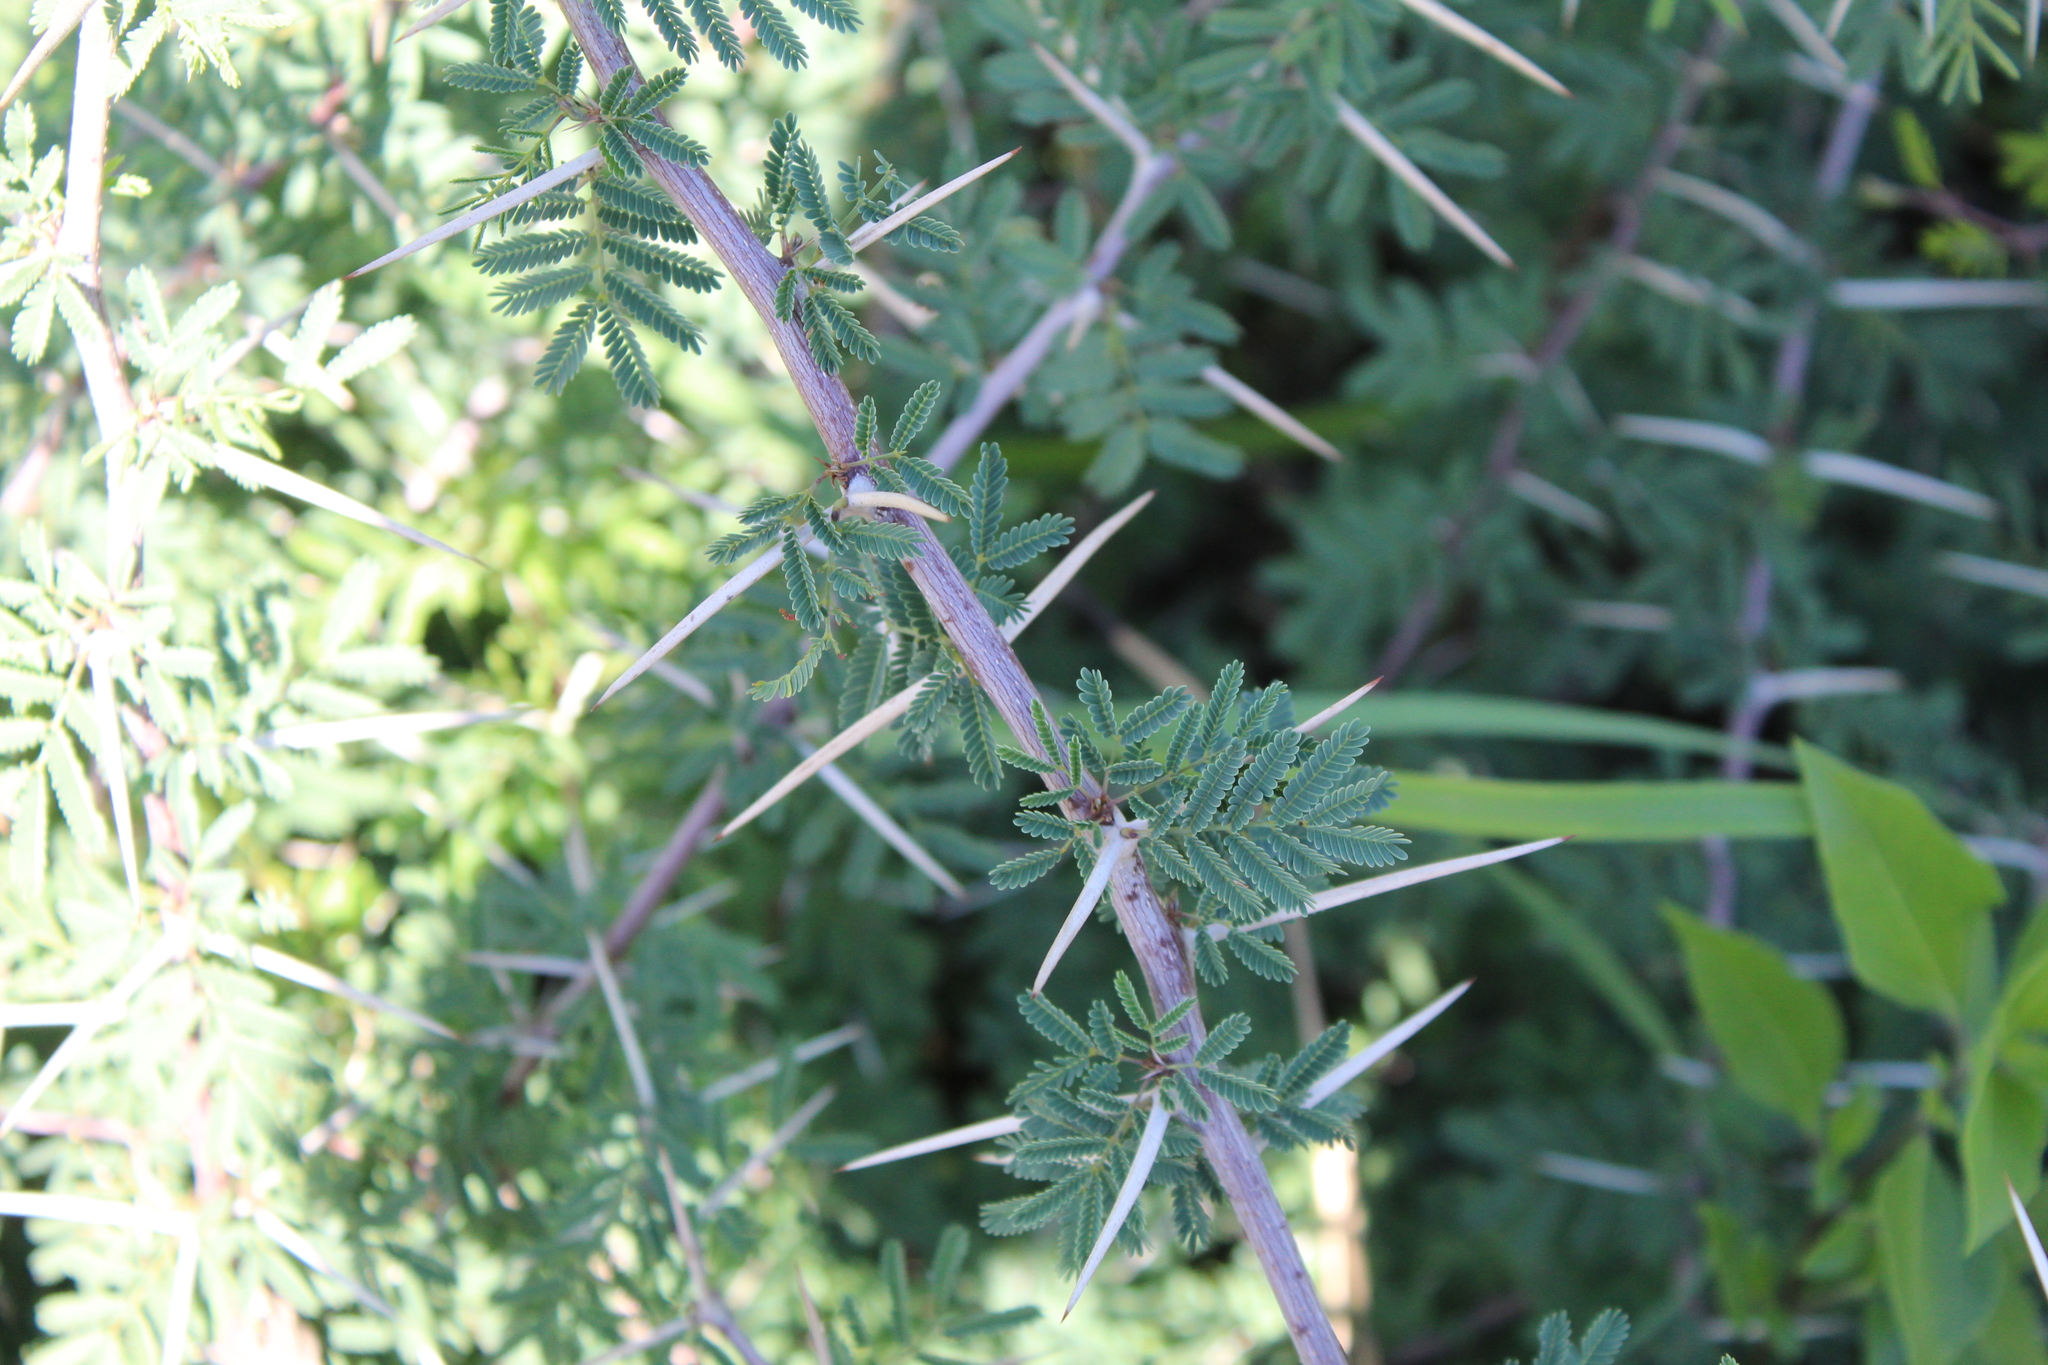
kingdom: Plantae
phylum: Tracheophyta
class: Magnoliopsida
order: Fabales
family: Fabaceae
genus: Vachellia
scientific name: Vachellia farnesiana
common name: Sweet acacia
